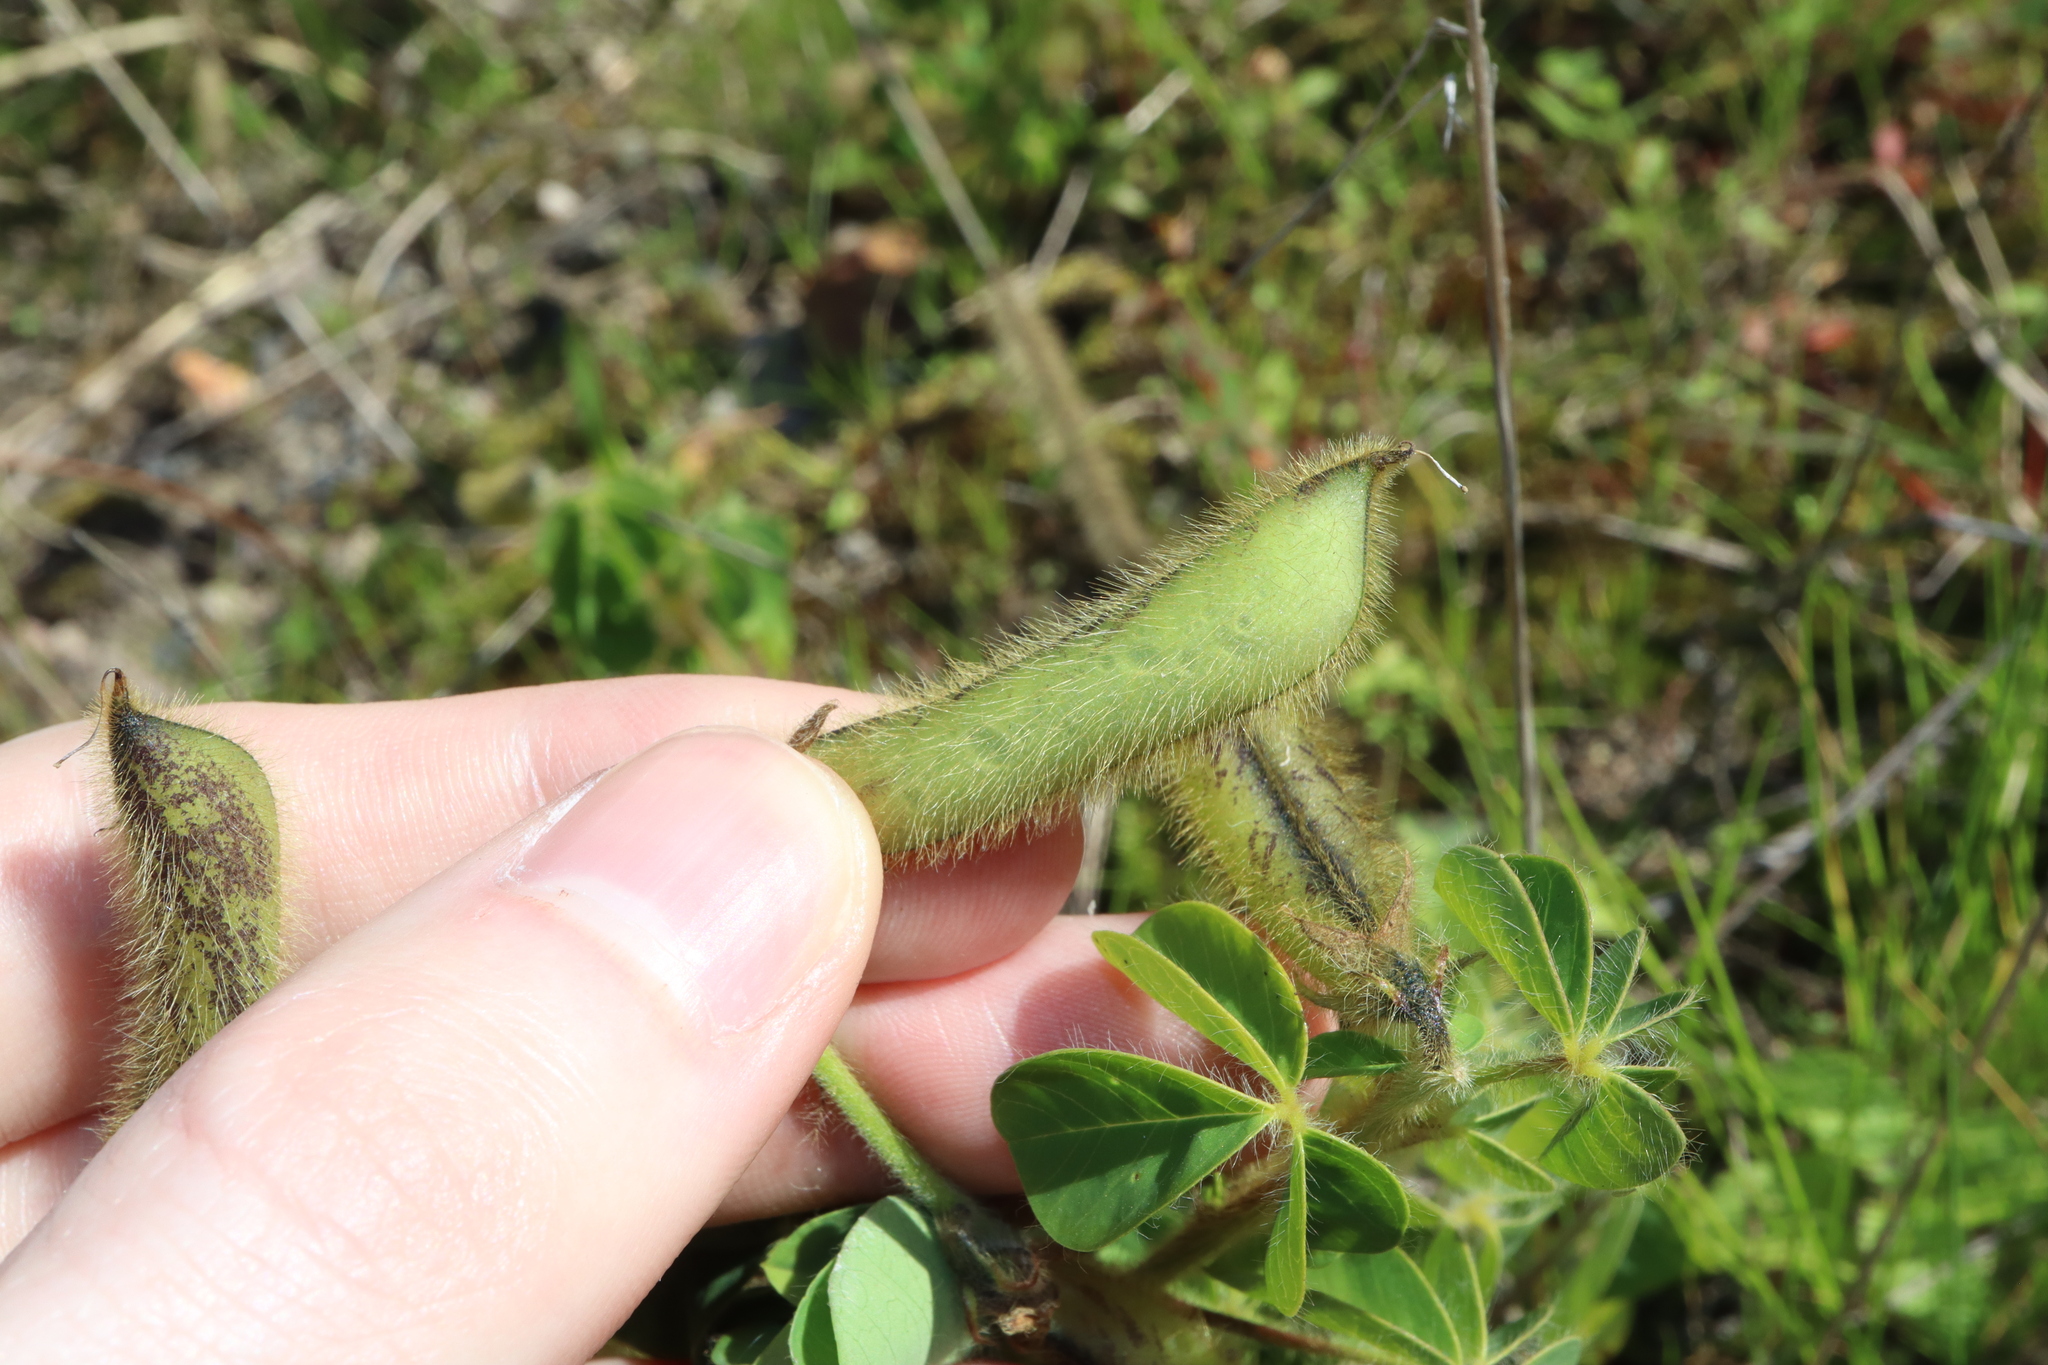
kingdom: Plantae
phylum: Tracheophyta
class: Magnoliopsida
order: Fabales
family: Fabaceae
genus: Crotalaria
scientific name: Crotalaria incana
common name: Shakeshake
